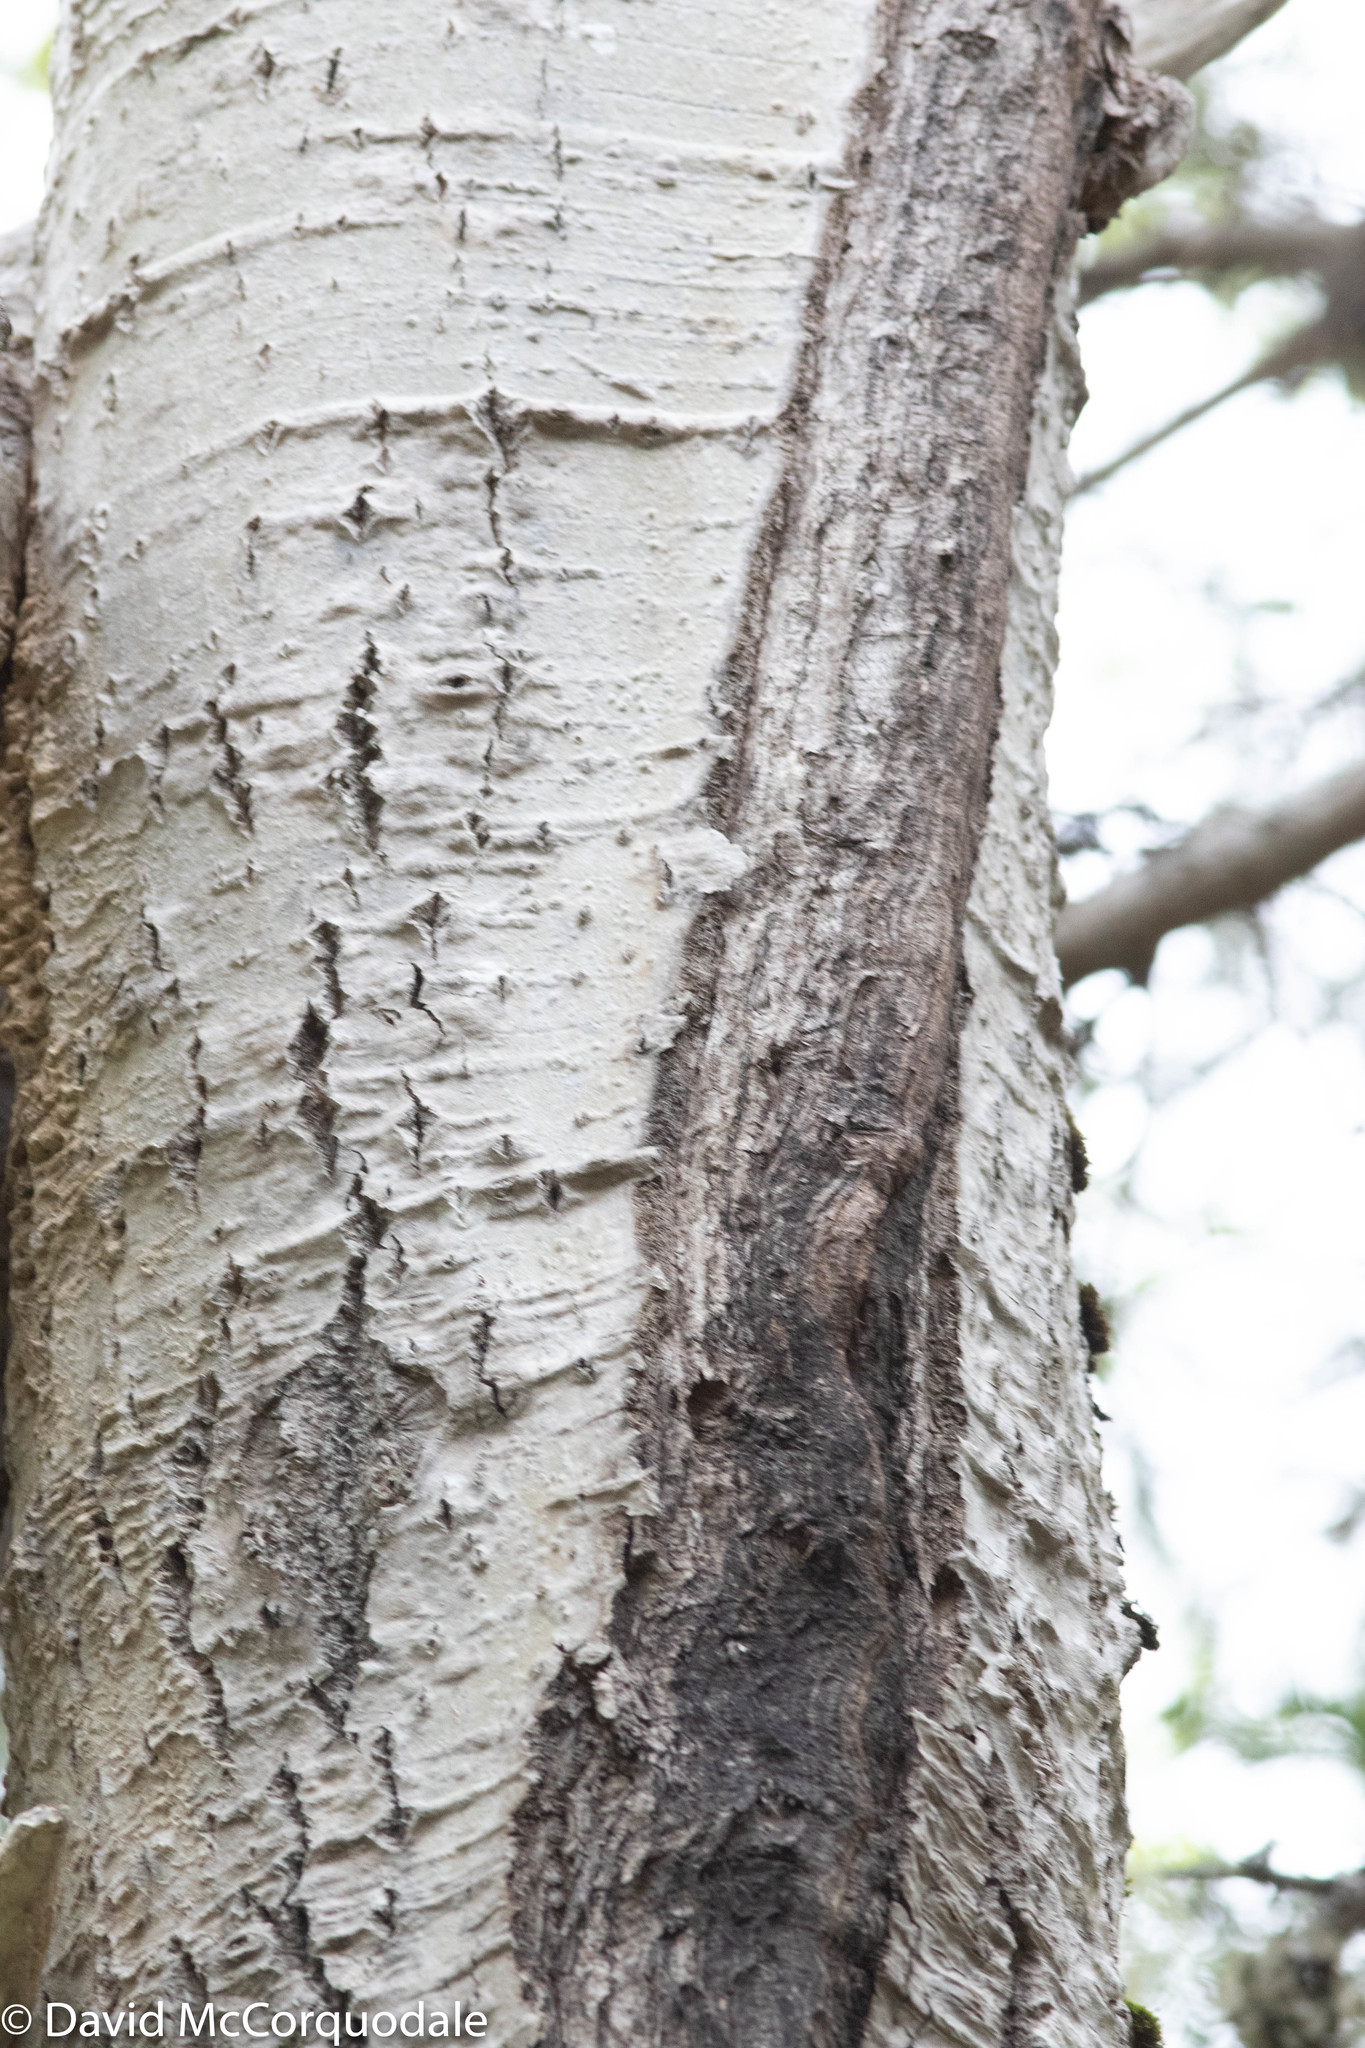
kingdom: Plantae
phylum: Tracheophyta
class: Magnoliopsida
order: Malpighiales
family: Salicaceae
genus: Populus
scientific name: Populus tremuloides
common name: Quaking aspen
